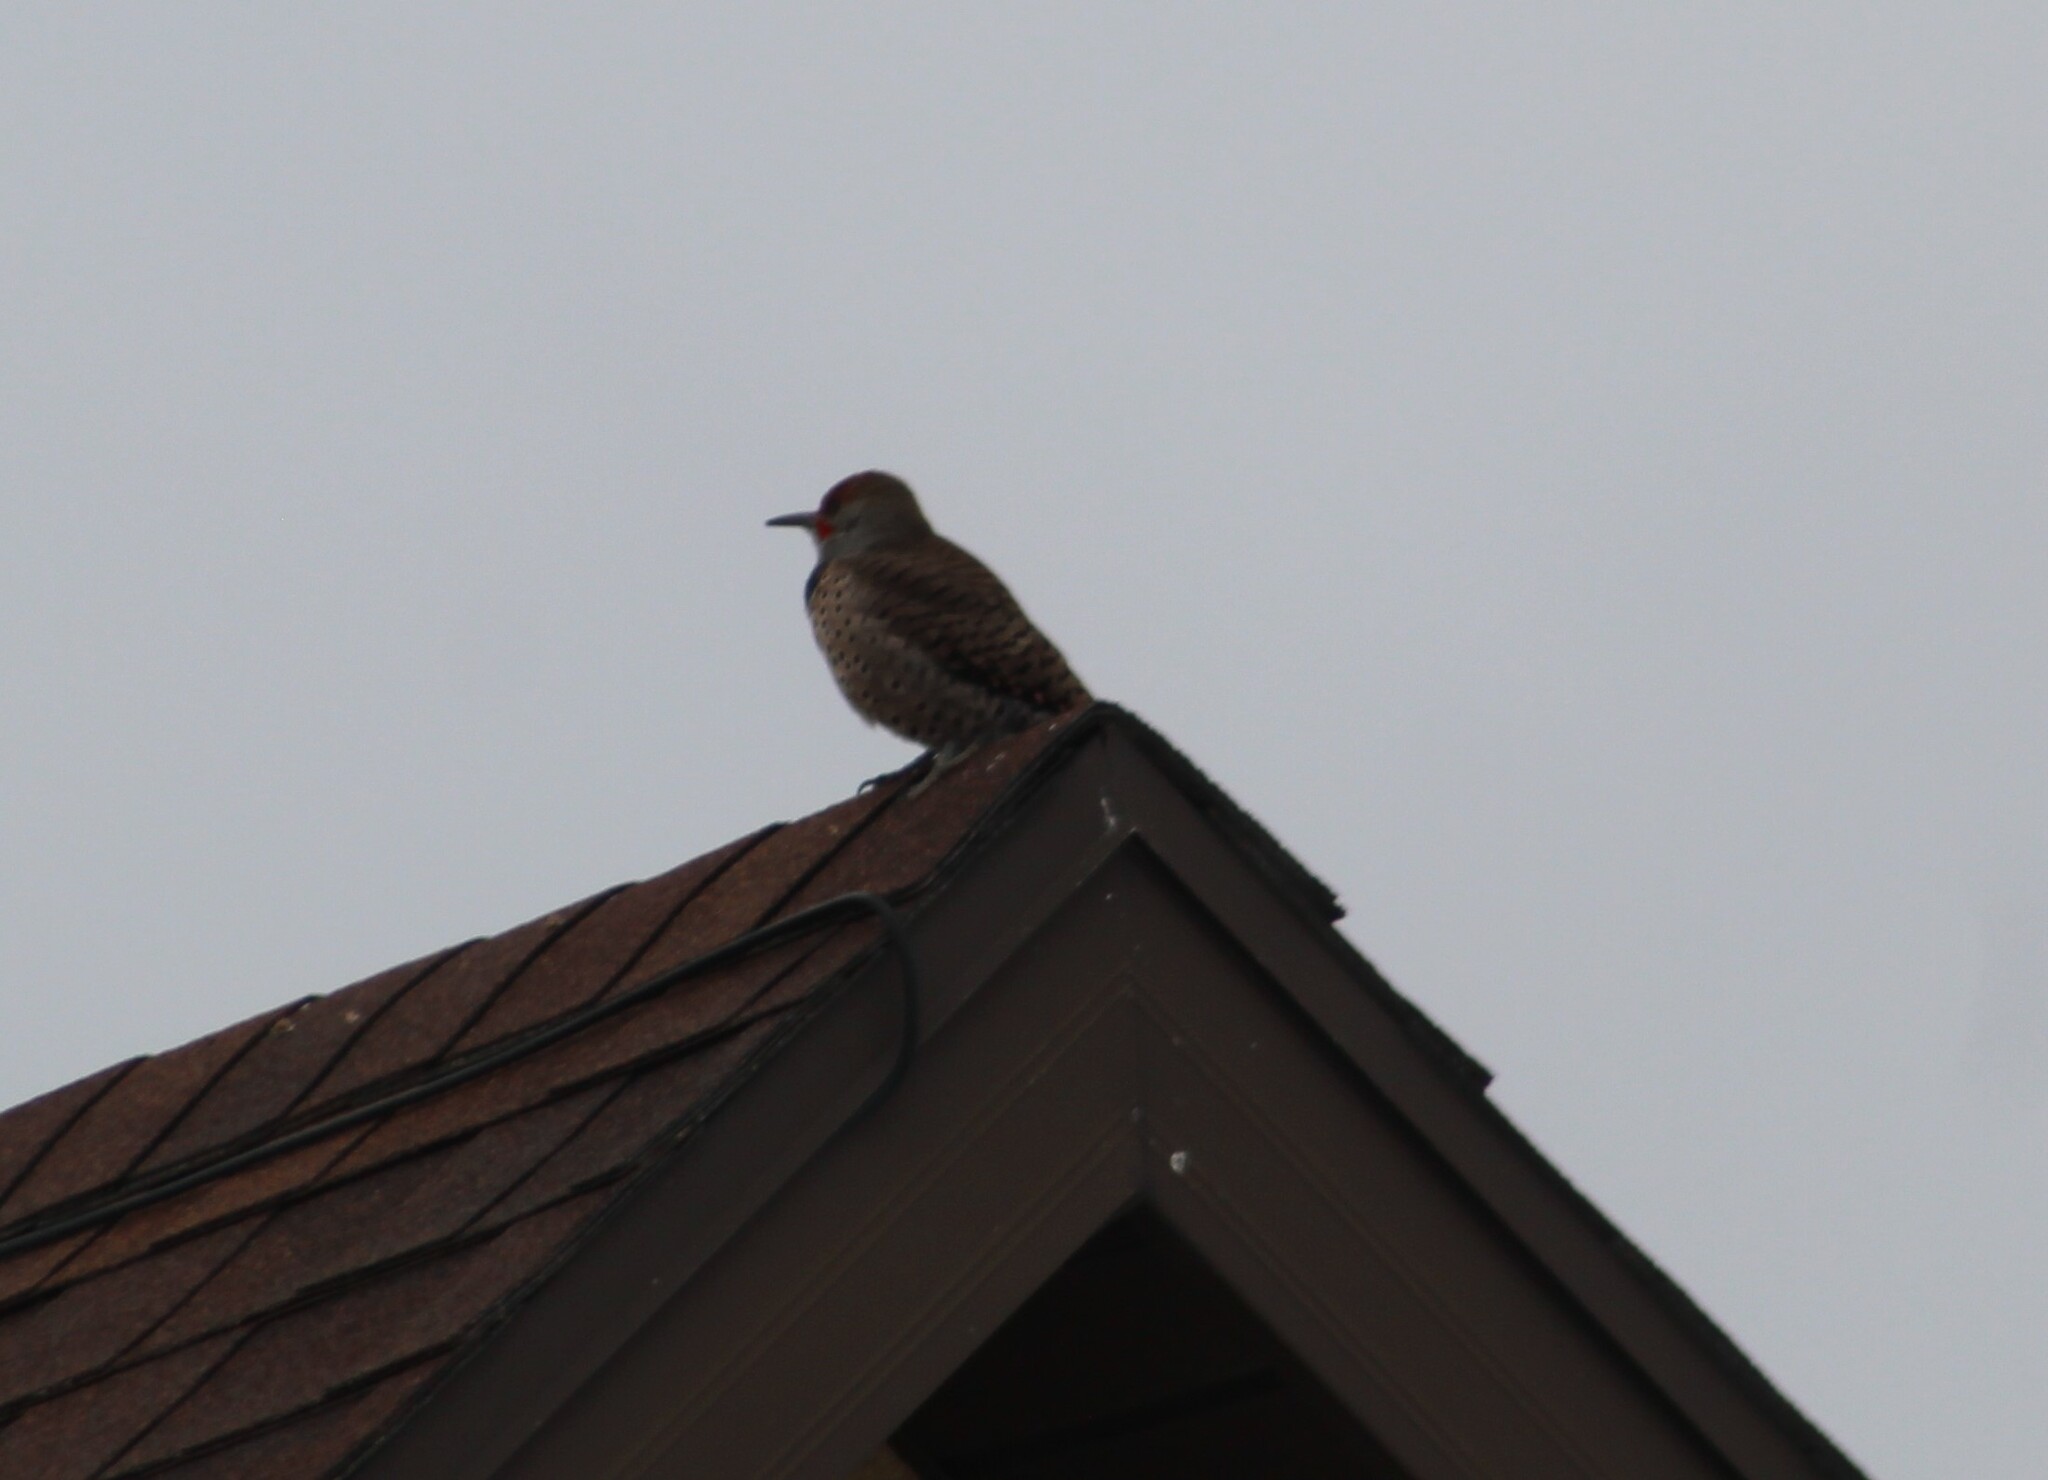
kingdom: Animalia
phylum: Chordata
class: Aves
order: Piciformes
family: Picidae
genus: Colaptes
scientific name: Colaptes auratus
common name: Northern flicker
